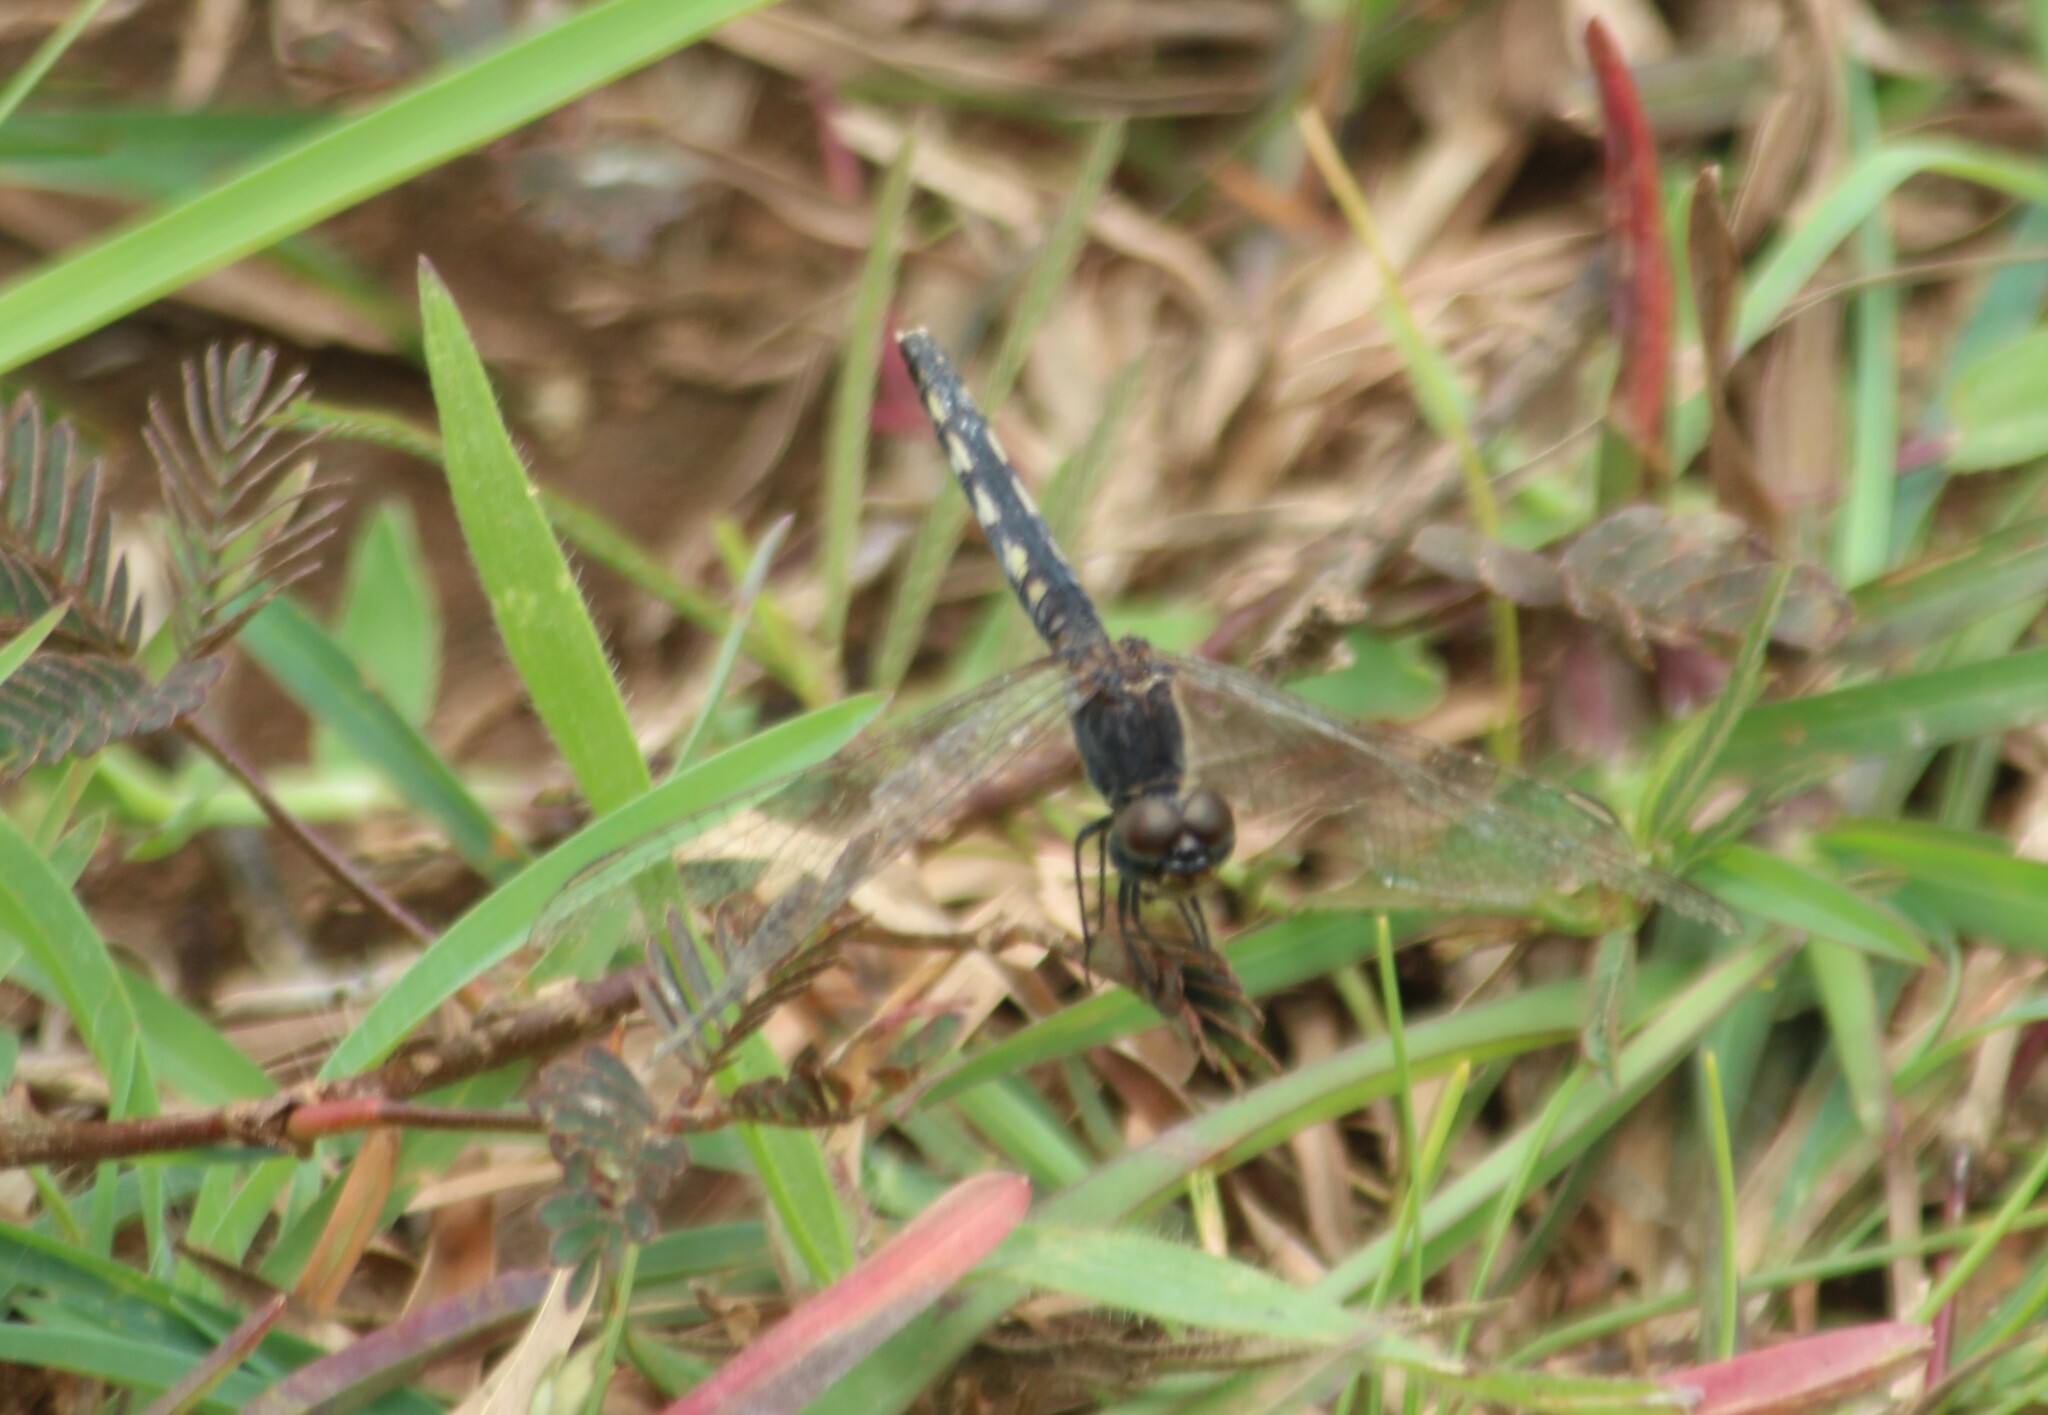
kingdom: Animalia
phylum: Arthropoda
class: Insecta
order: Odonata
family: Libellulidae
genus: Diplacodes
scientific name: Diplacodes lefebvrii
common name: Black percher
